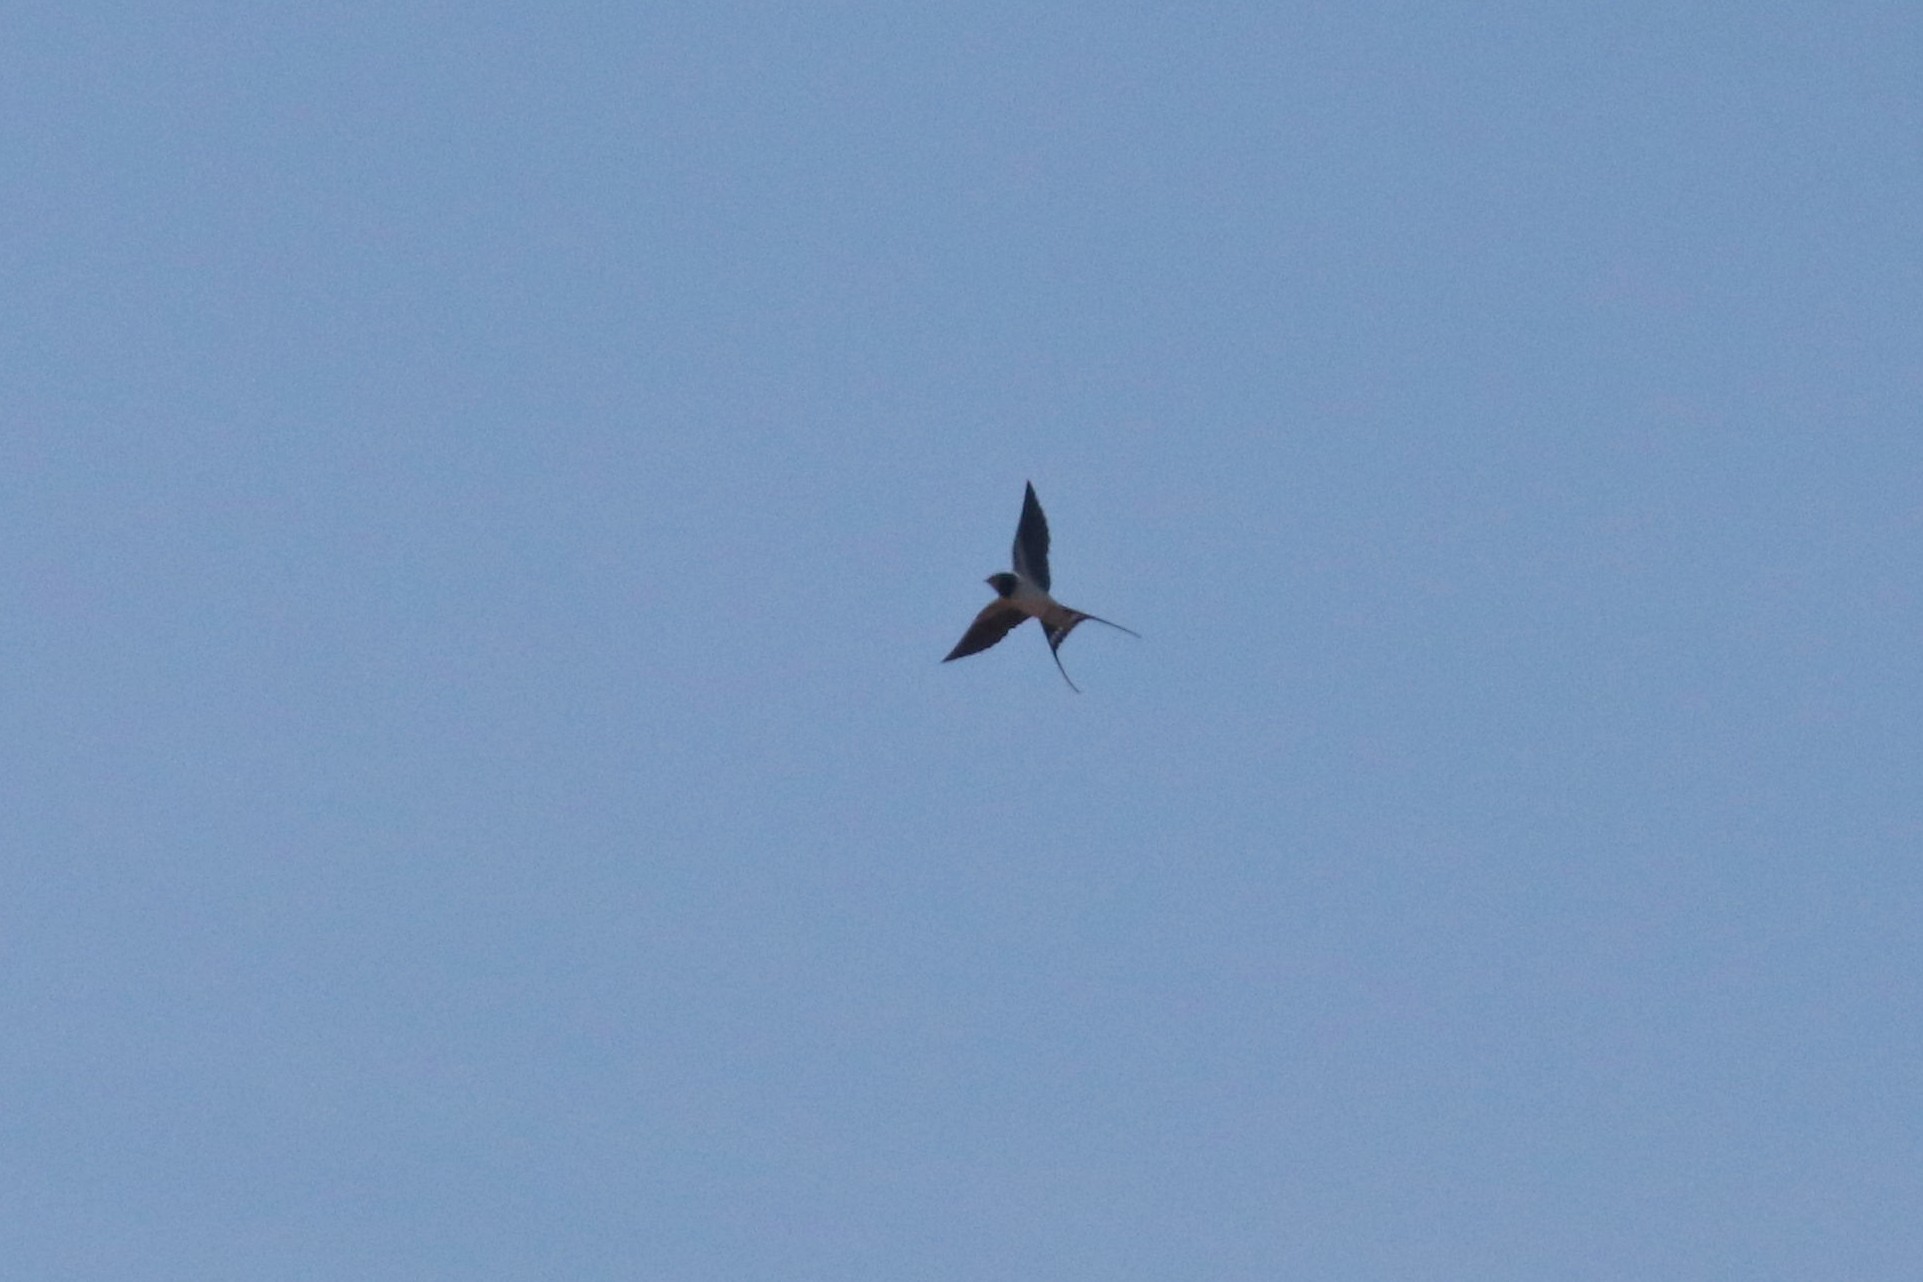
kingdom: Animalia
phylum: Chordata
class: Aves
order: Passeriformes
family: Hirundinidae
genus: Hirundo
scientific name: Hirundo rustica
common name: Barn swallow
